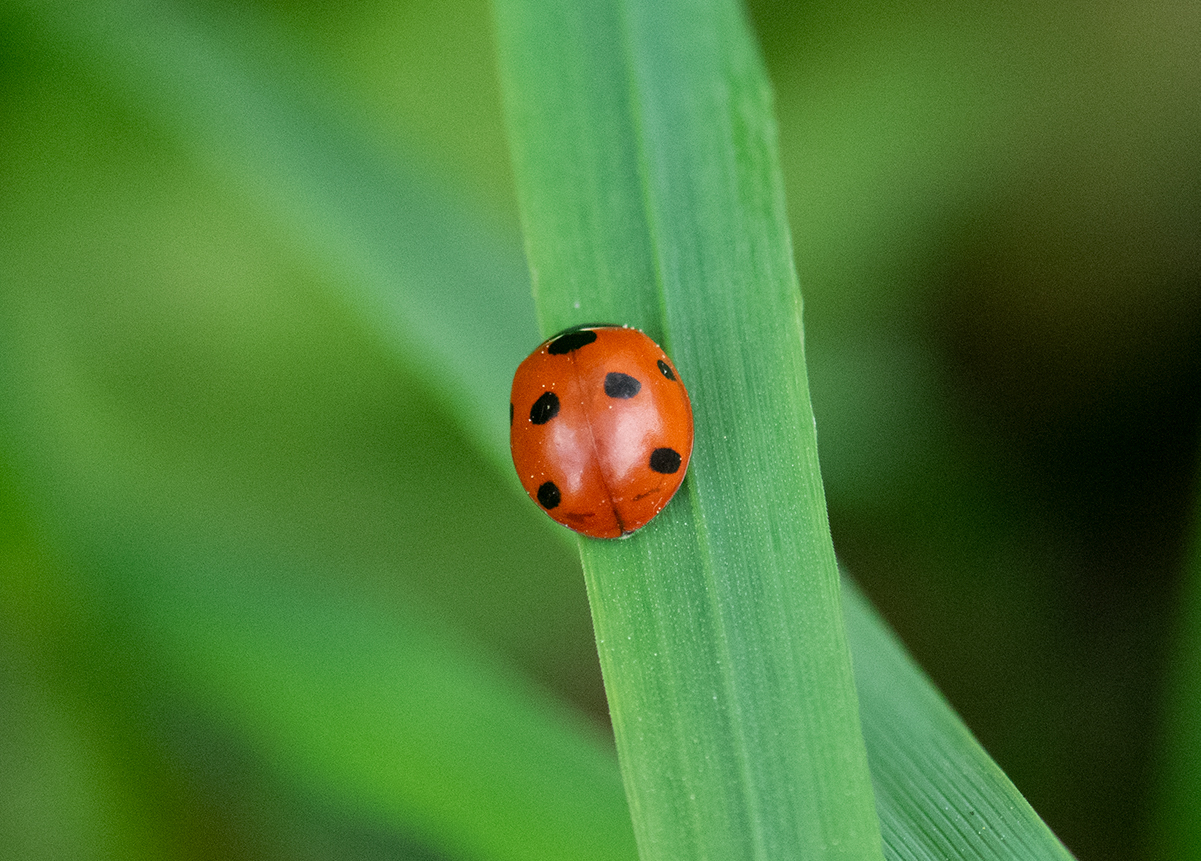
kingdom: Animalia
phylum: Arthropoda
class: Insecta
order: Coleoptera
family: Coccinellidae
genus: Coccinella
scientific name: Coccinella septempunctata
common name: Sevenspotted lady beetle
